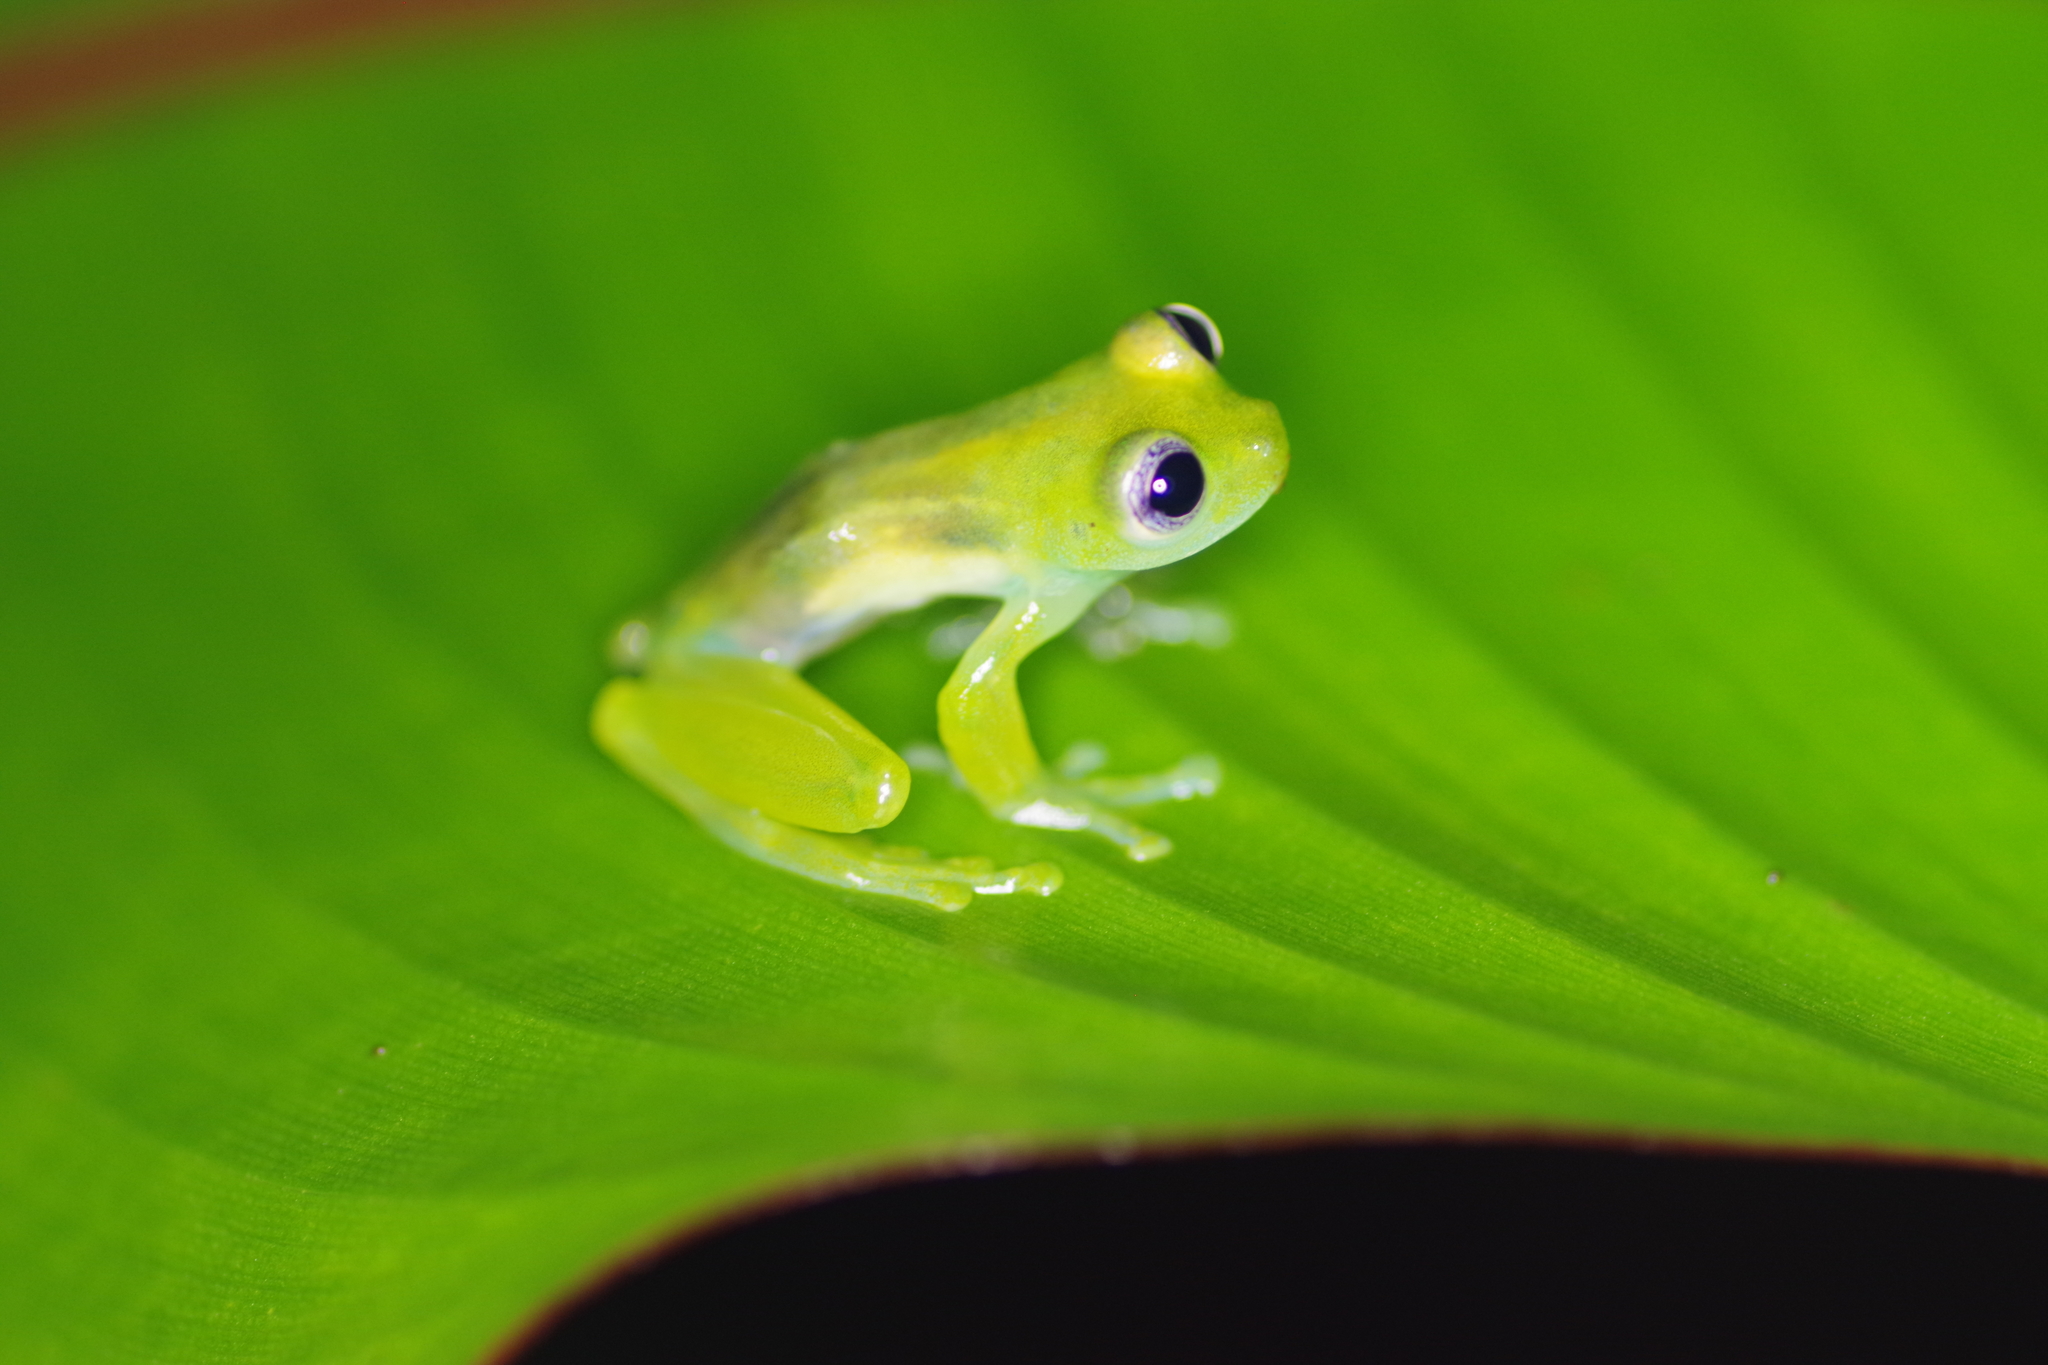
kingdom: Animalia
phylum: Chordata
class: Amphibia
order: Anura
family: Centrolenidae
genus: Teratohyla
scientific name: Teratohyla spinosa
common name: Spiny cochran frog
